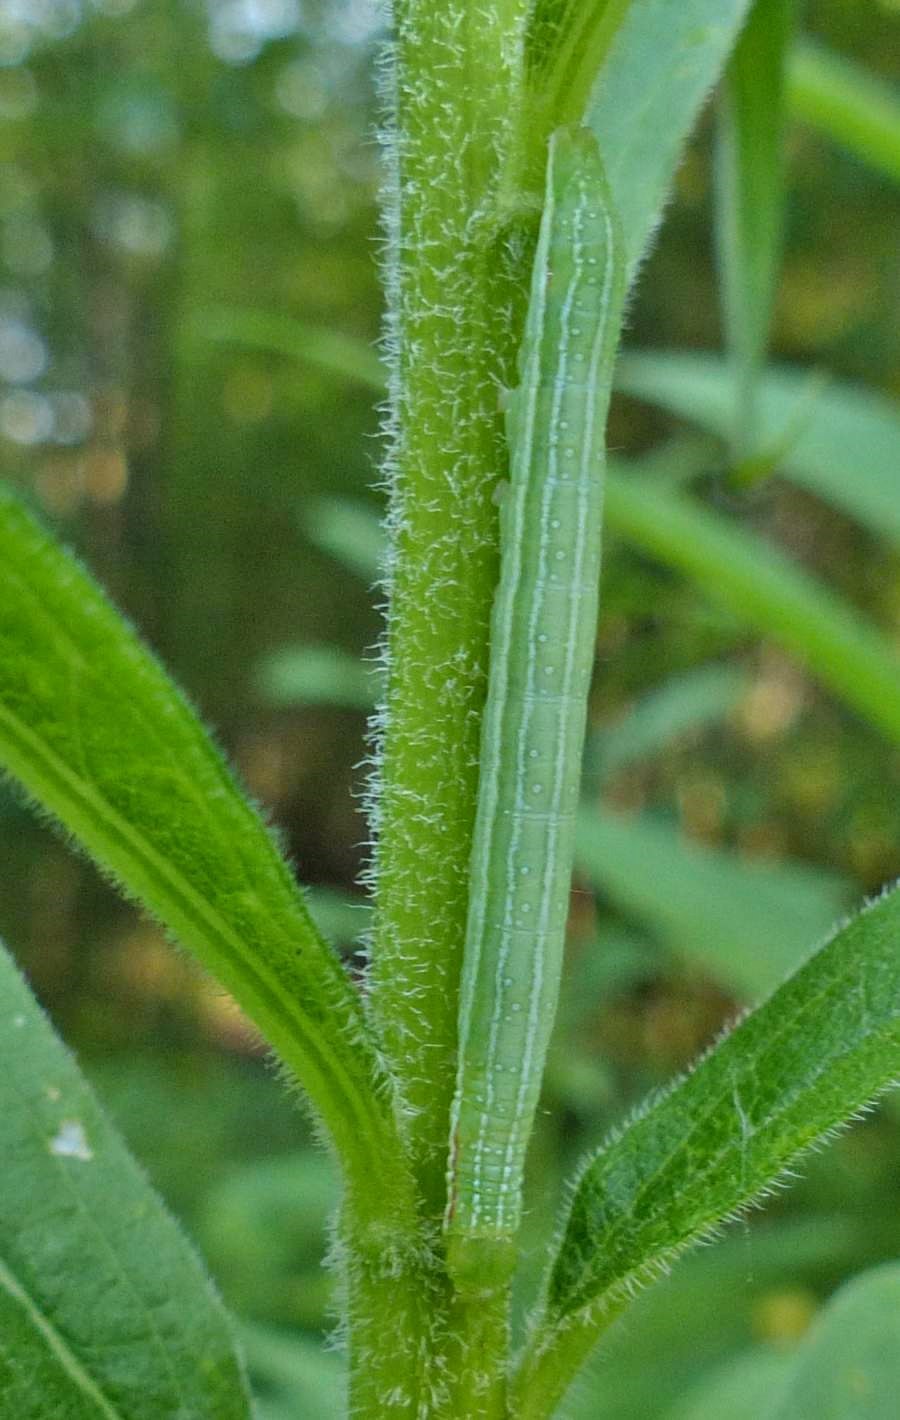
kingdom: Animalia
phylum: Arthropoda
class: Insecta
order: Lepidoptera
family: Noctuidae
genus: Leuconycta
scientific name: Leuconycta diphteroides
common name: Green leuconycta moth
